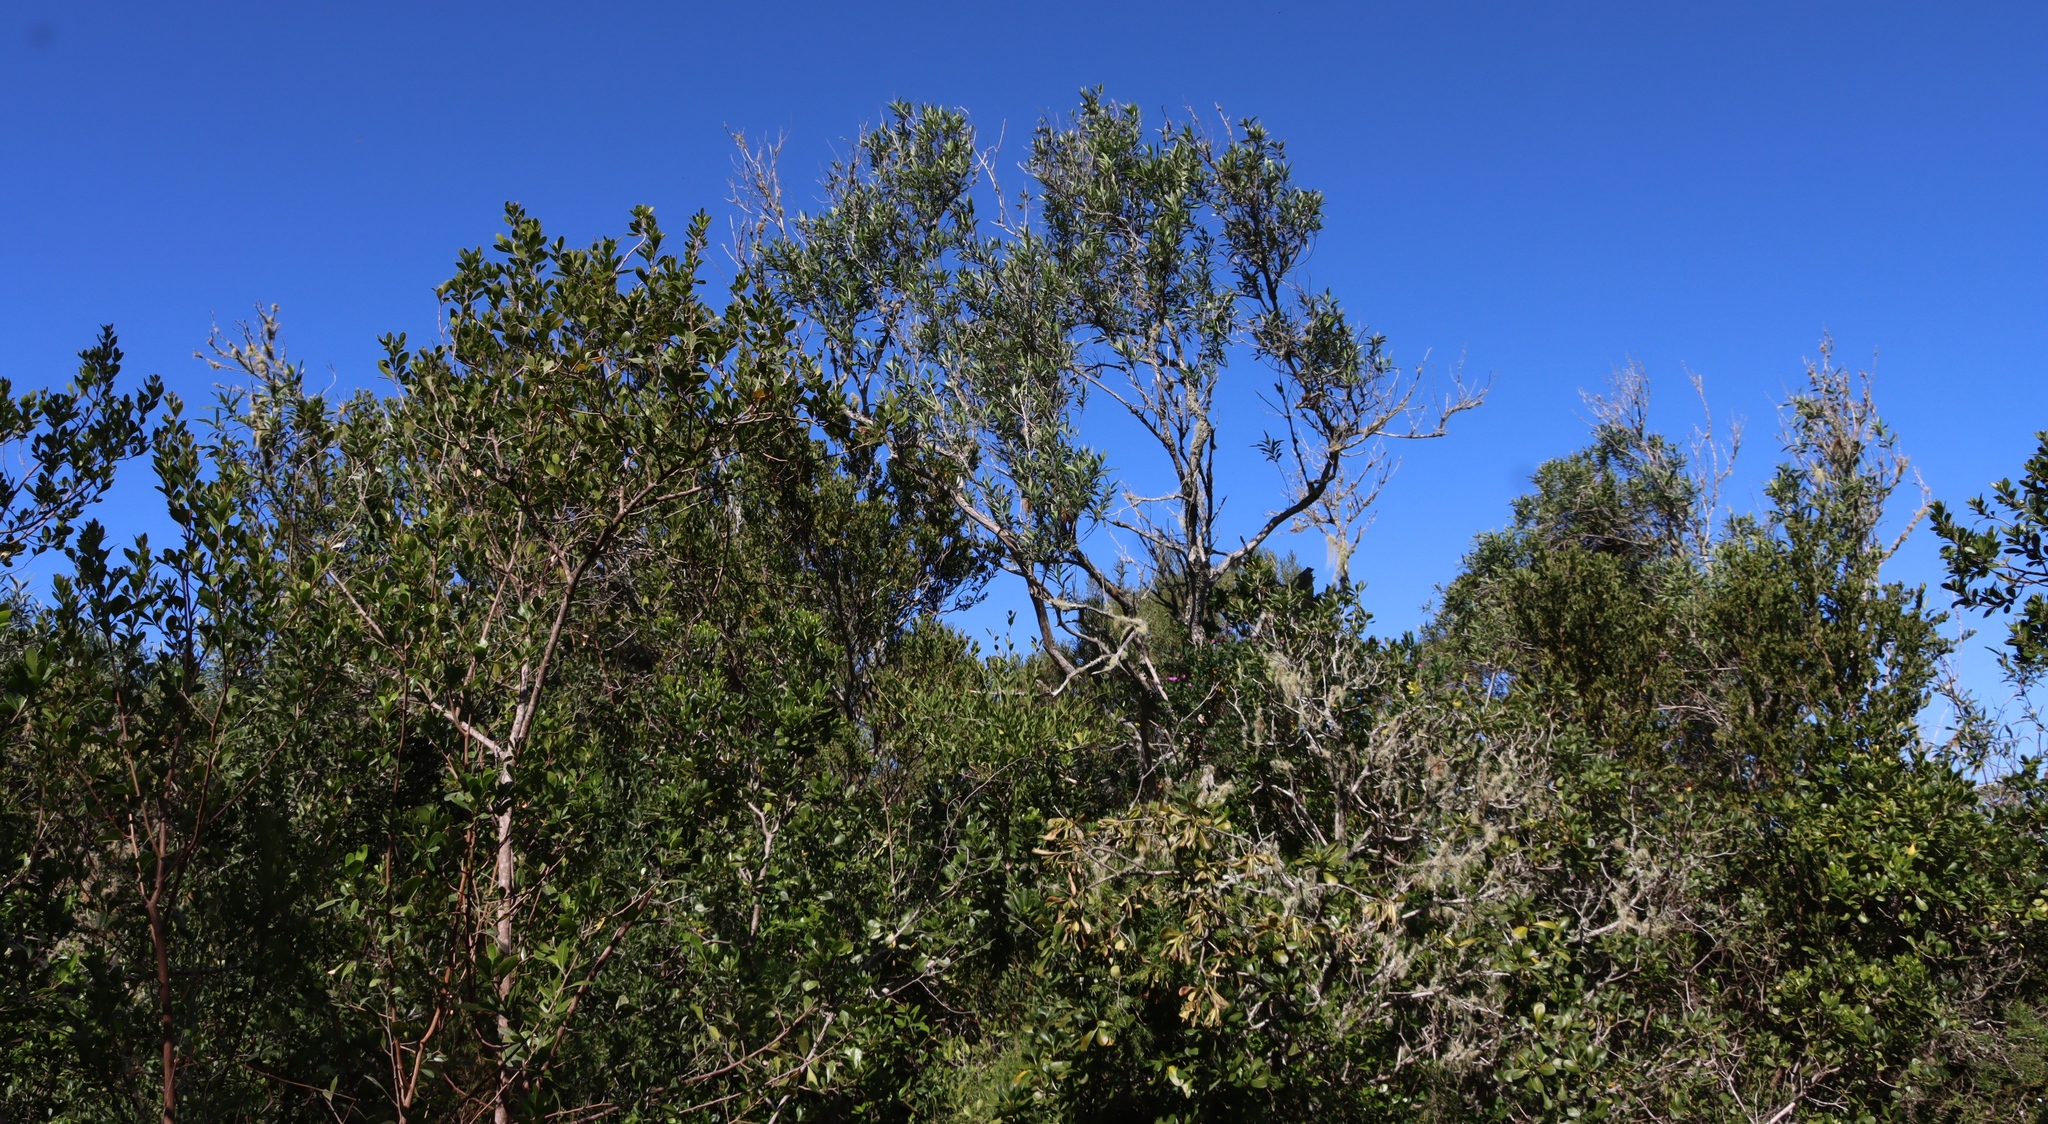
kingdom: Plantae
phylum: Tracheophyta
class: Magnoliopsida
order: Lamiales
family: Scrophulariaceae
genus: Buddleja
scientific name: Buddleja saligna
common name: False olive
